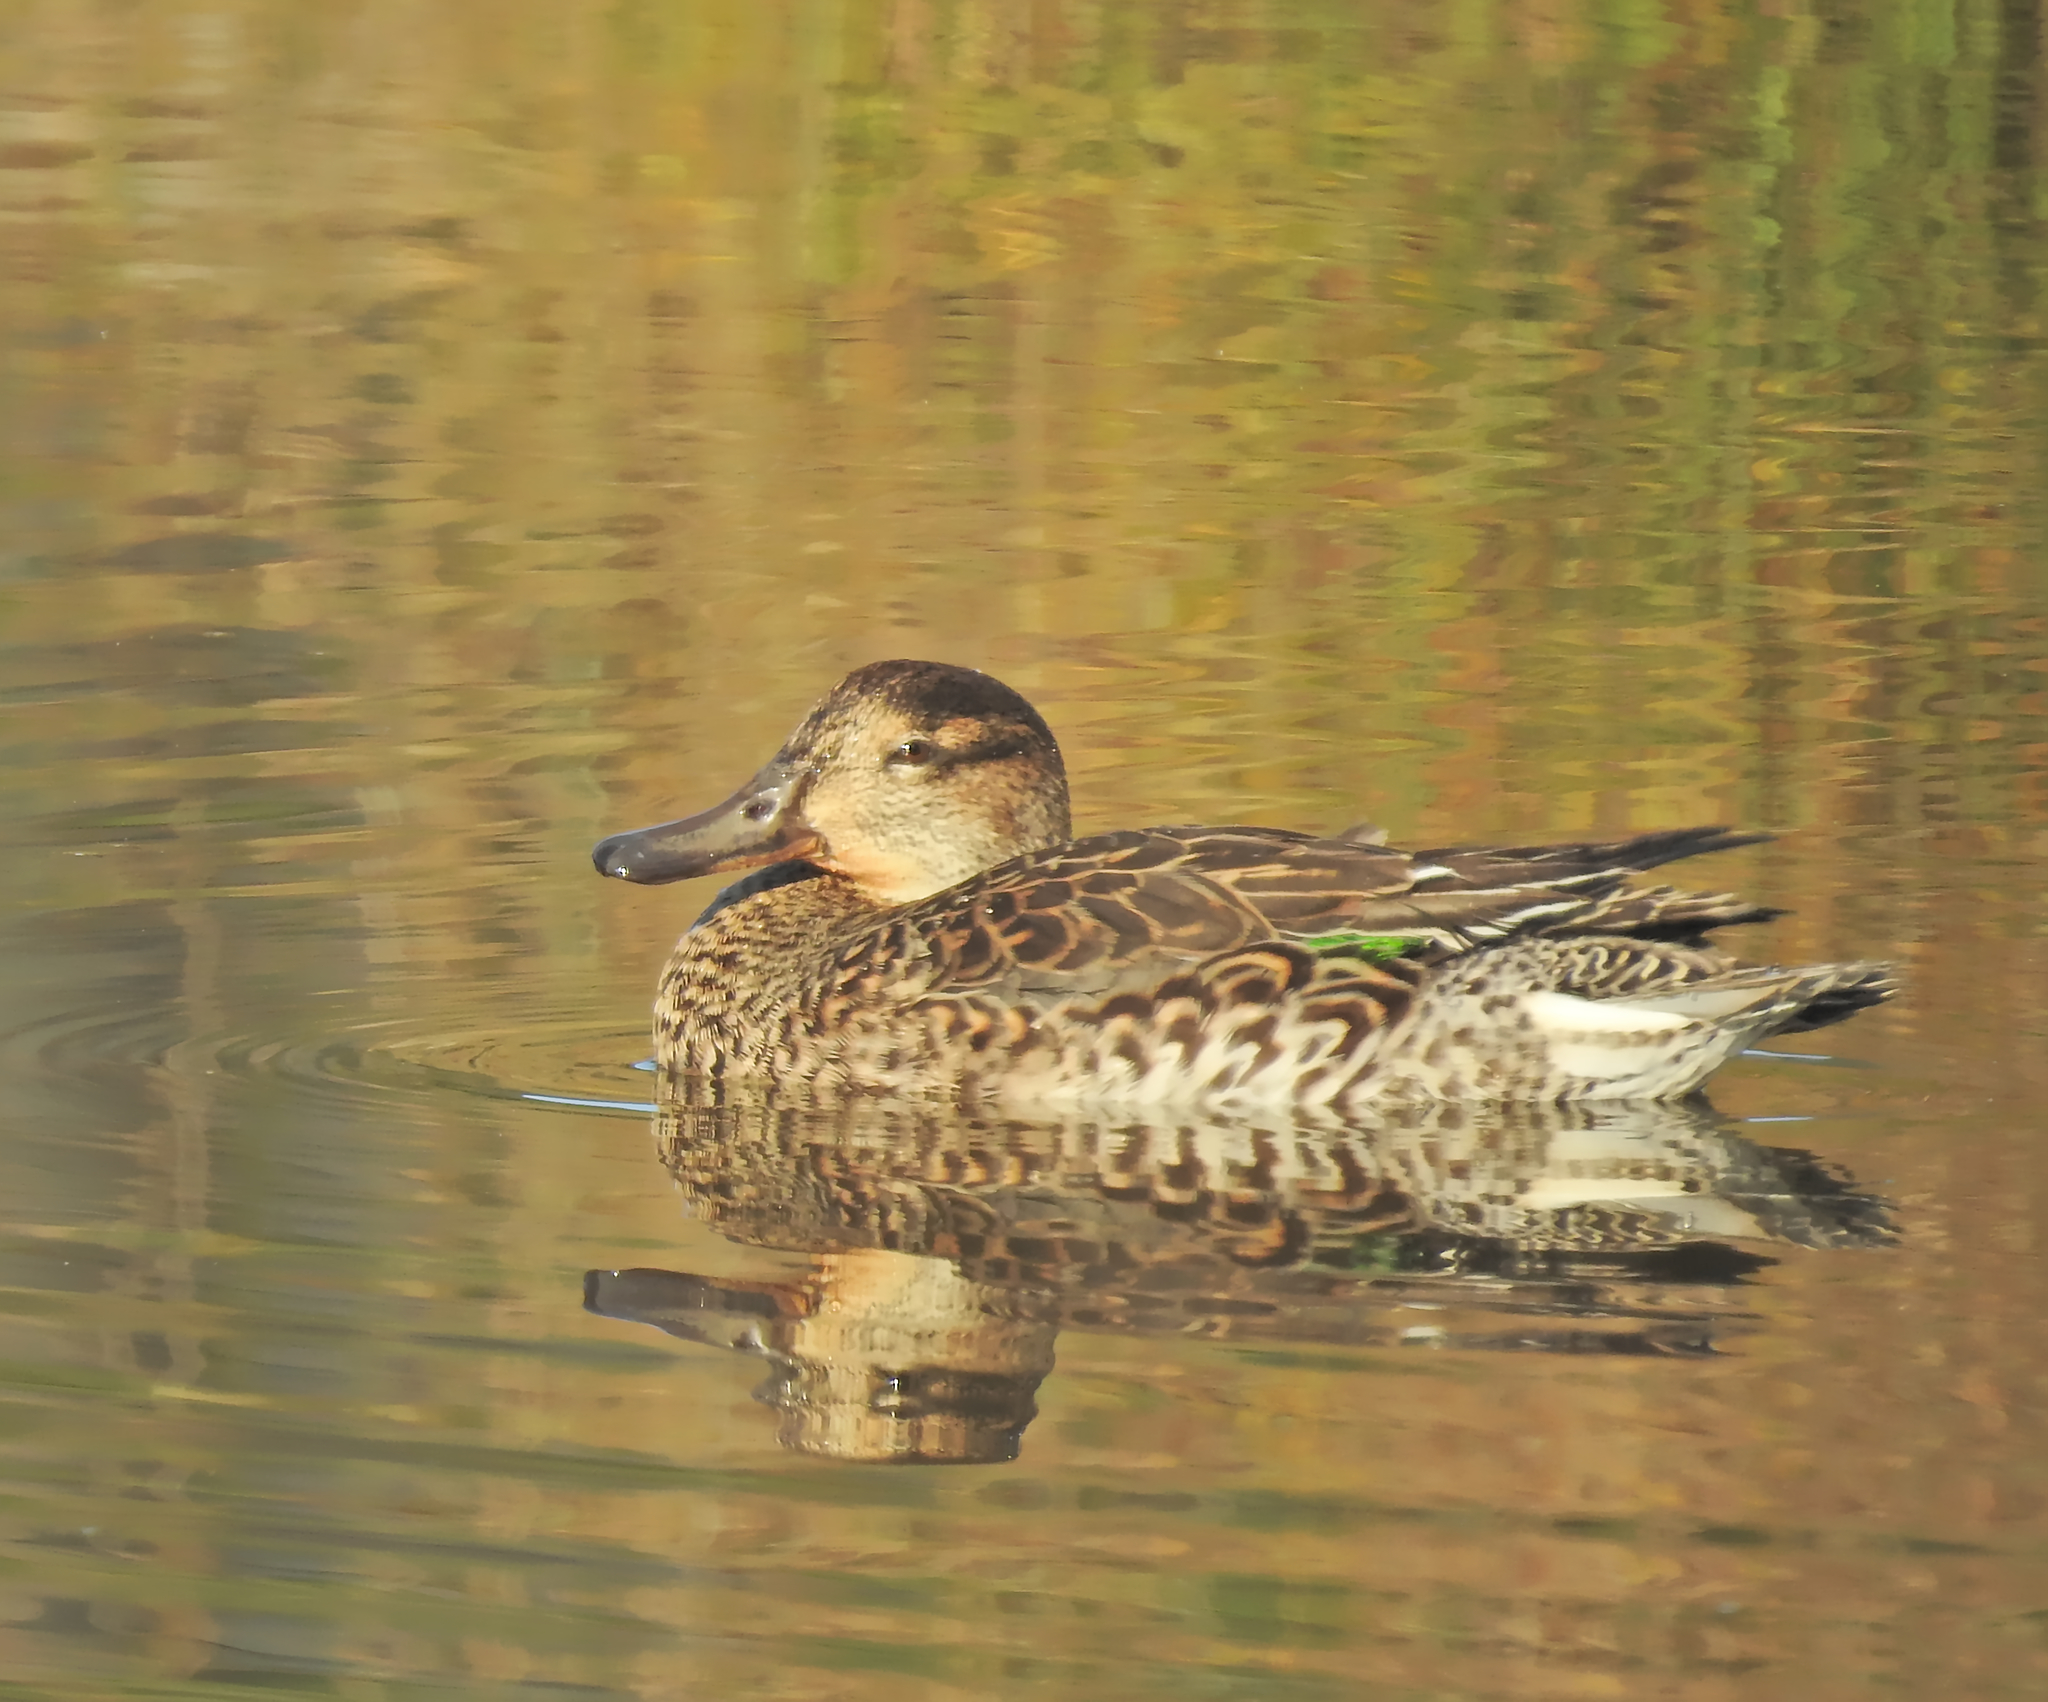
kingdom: Animalia
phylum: Chordata
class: Aves
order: Anseriformes
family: Anatidae
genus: Anas
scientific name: Anas crecca
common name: Eurasian teal
